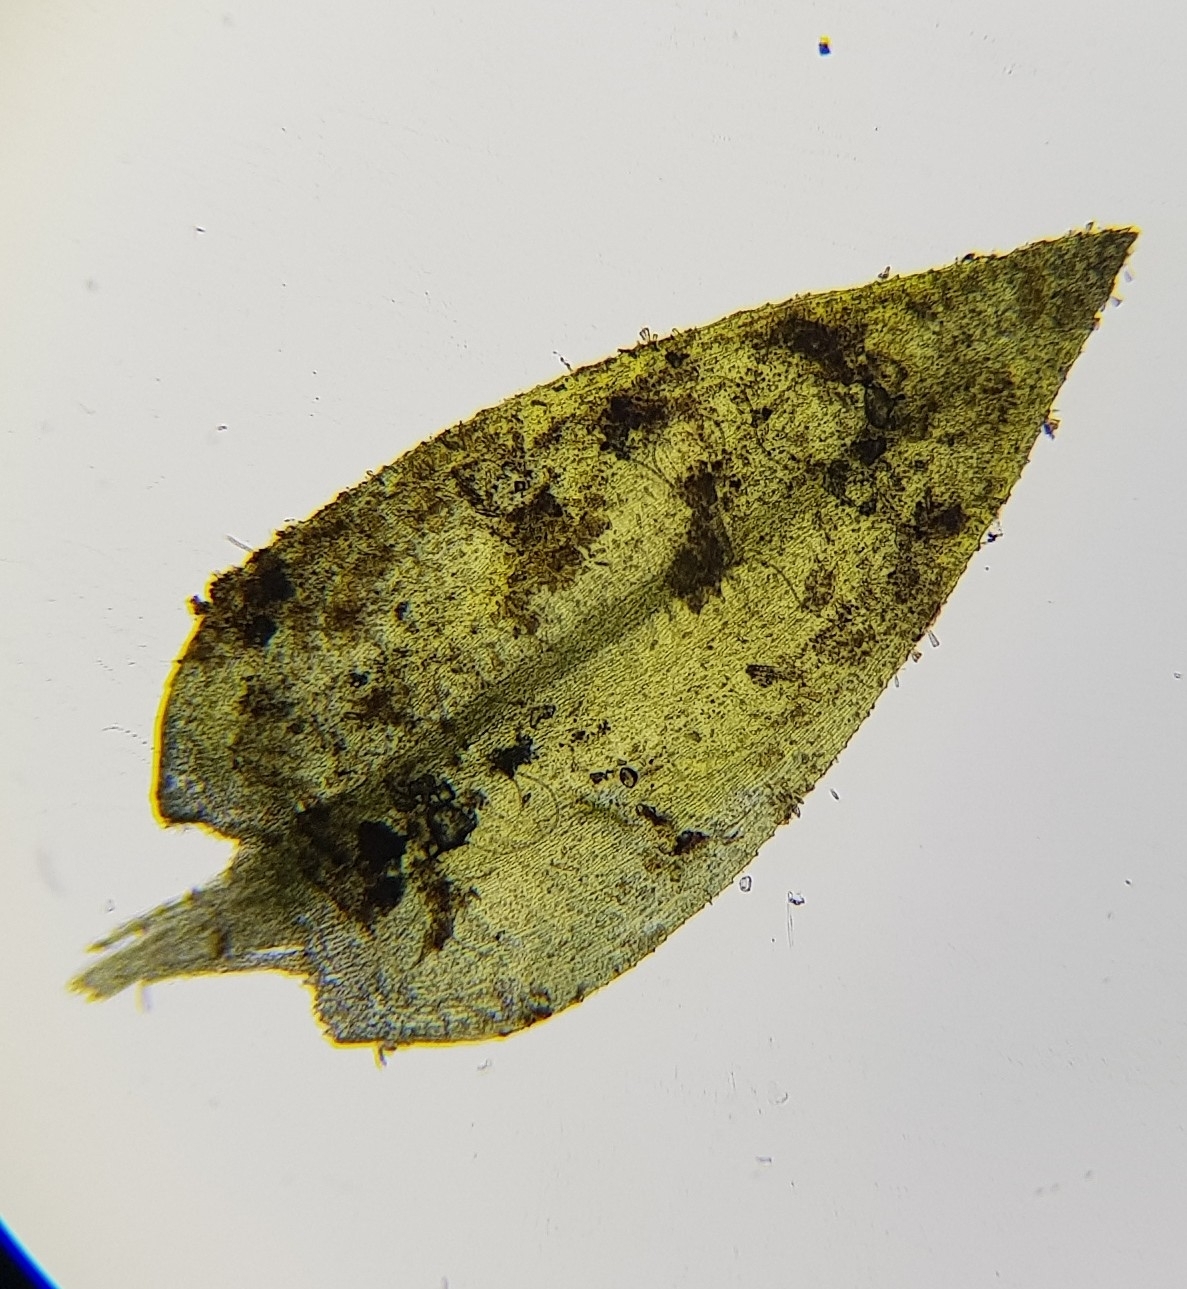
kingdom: Plantae
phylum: Bryophyta
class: Bryopsida
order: Hypnales
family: Brachytheciaceae
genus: Rhynchostegium
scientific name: Rhynchostegium riparioides
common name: Platyhypnidium moss
